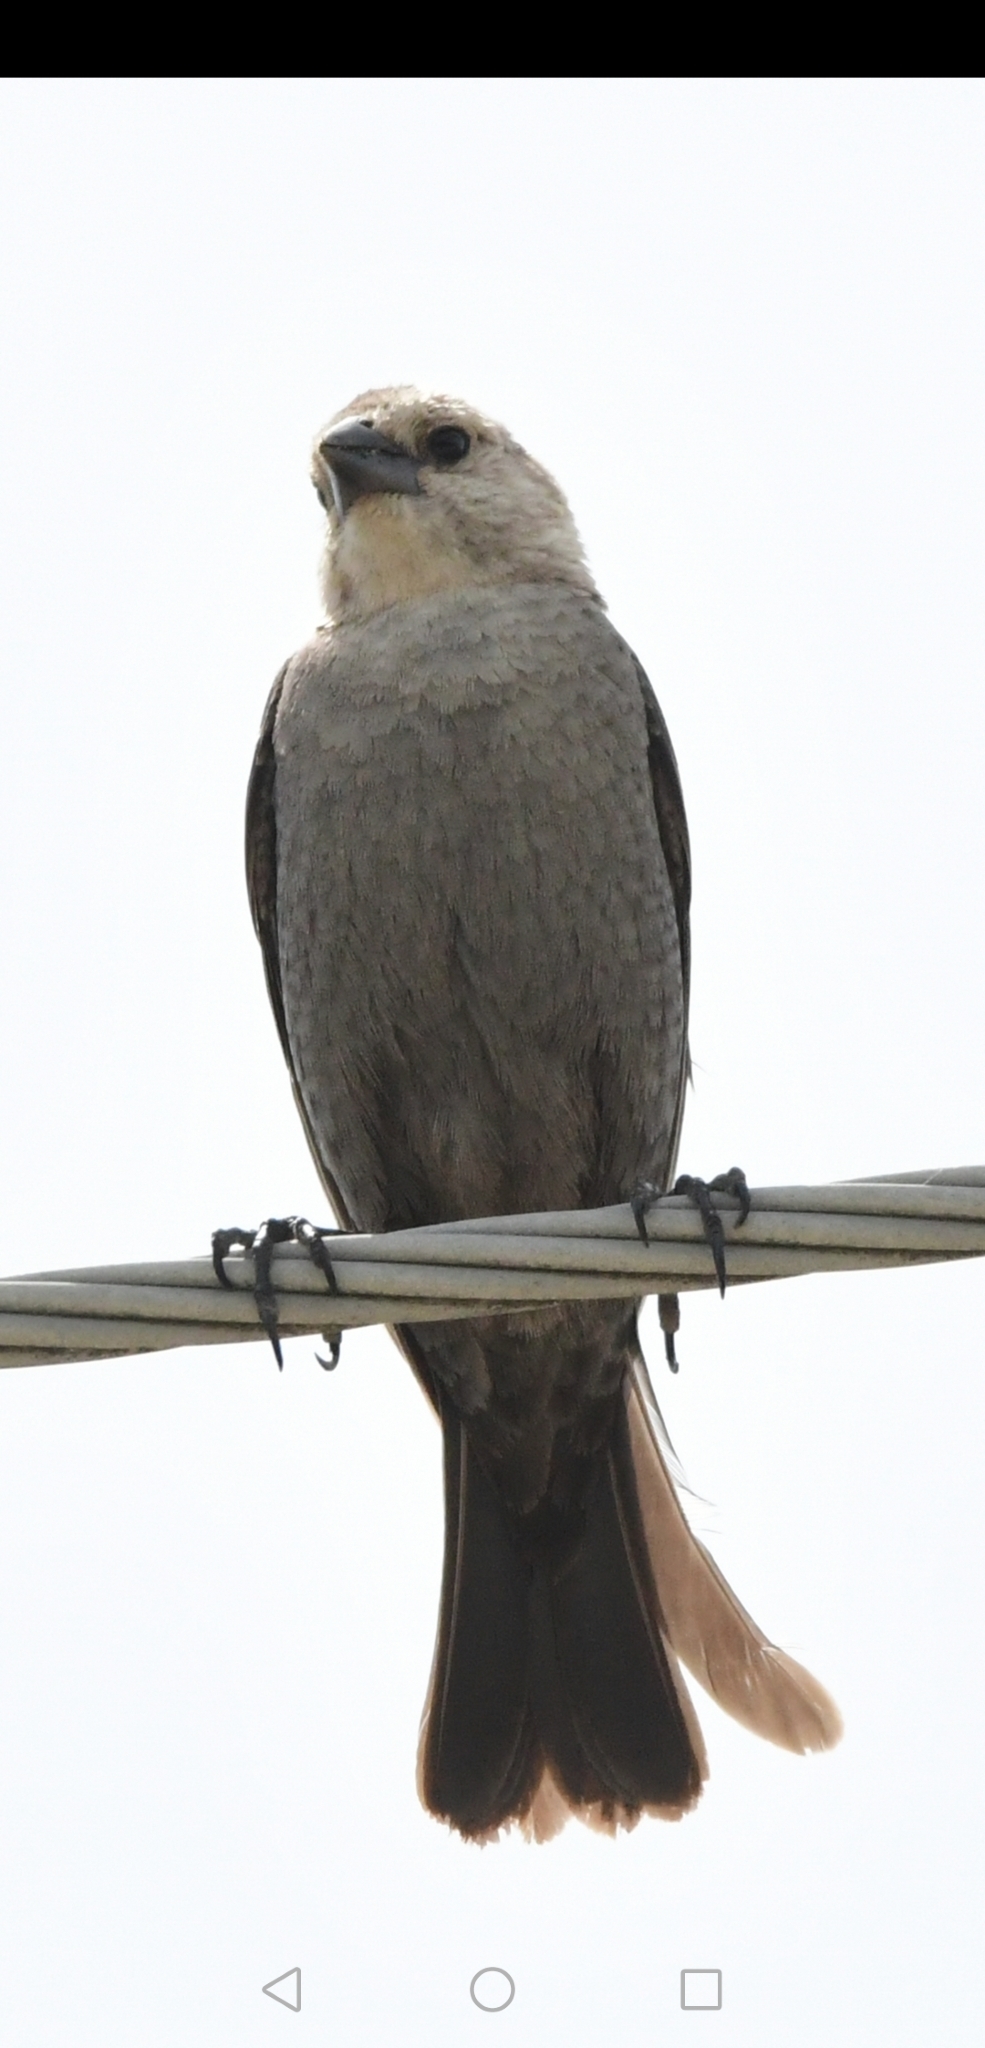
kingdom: Animalia
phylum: Chordata
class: Aves
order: Passeriformes
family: Icteridae
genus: Molothrus
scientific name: Molothrus ater
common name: Brown-headed cowbird
